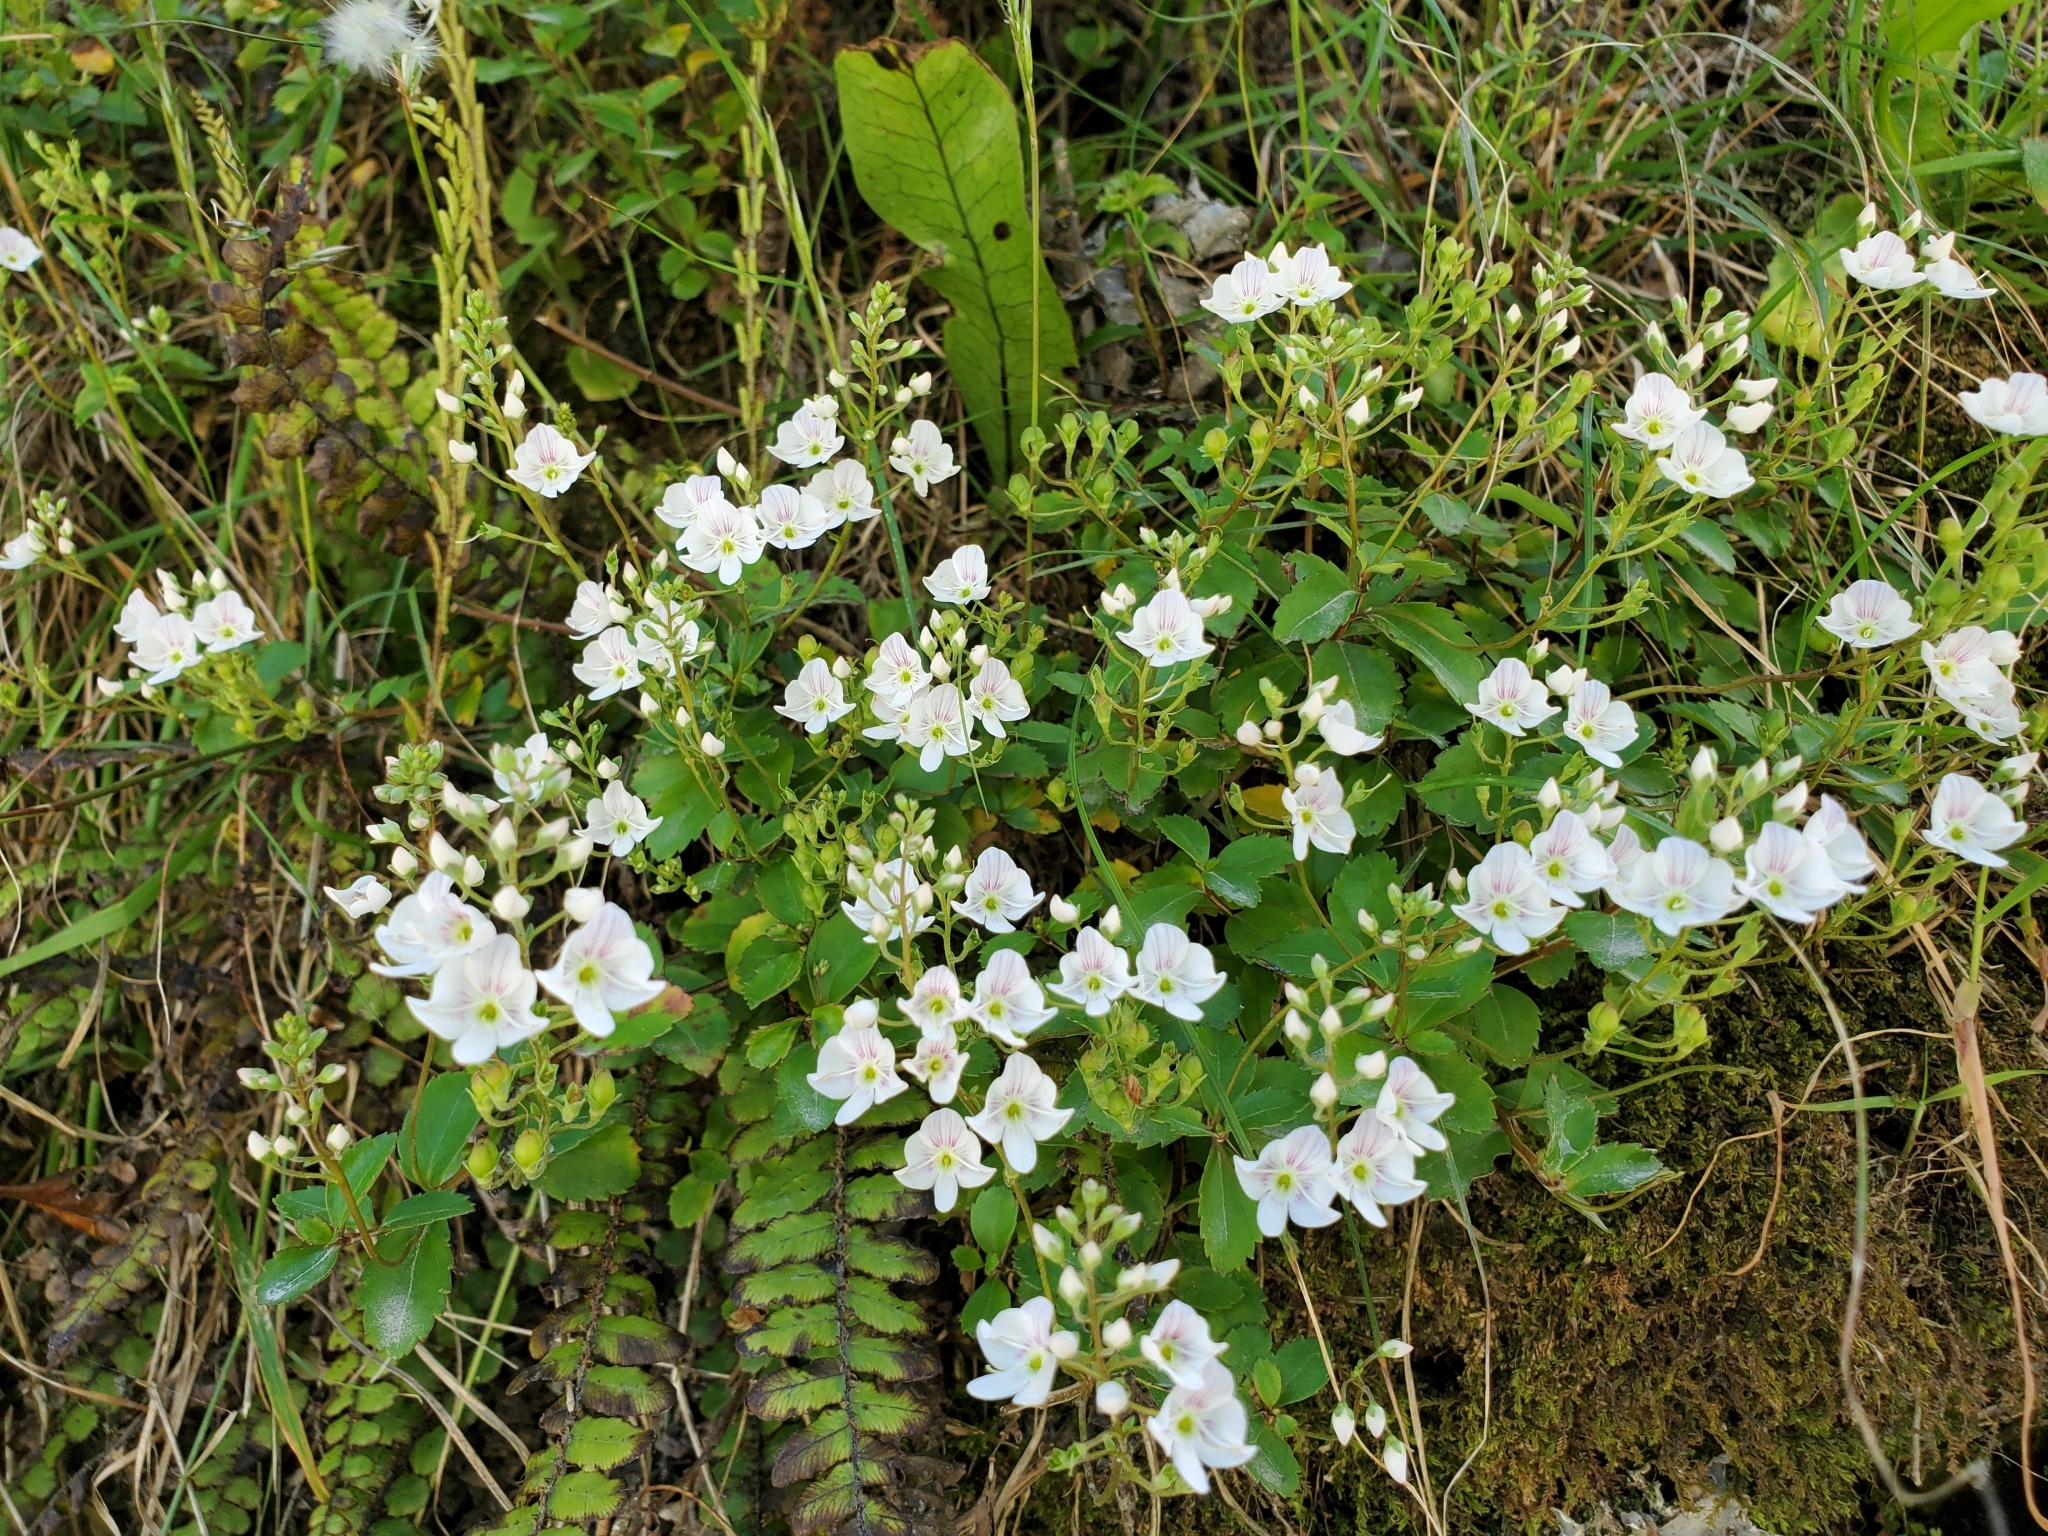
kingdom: Plantae
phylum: Tracheophyta
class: Magnoliopsida
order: Lamiales
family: Plantaginaceae
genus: Veronica
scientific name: Veronica lanceolata
